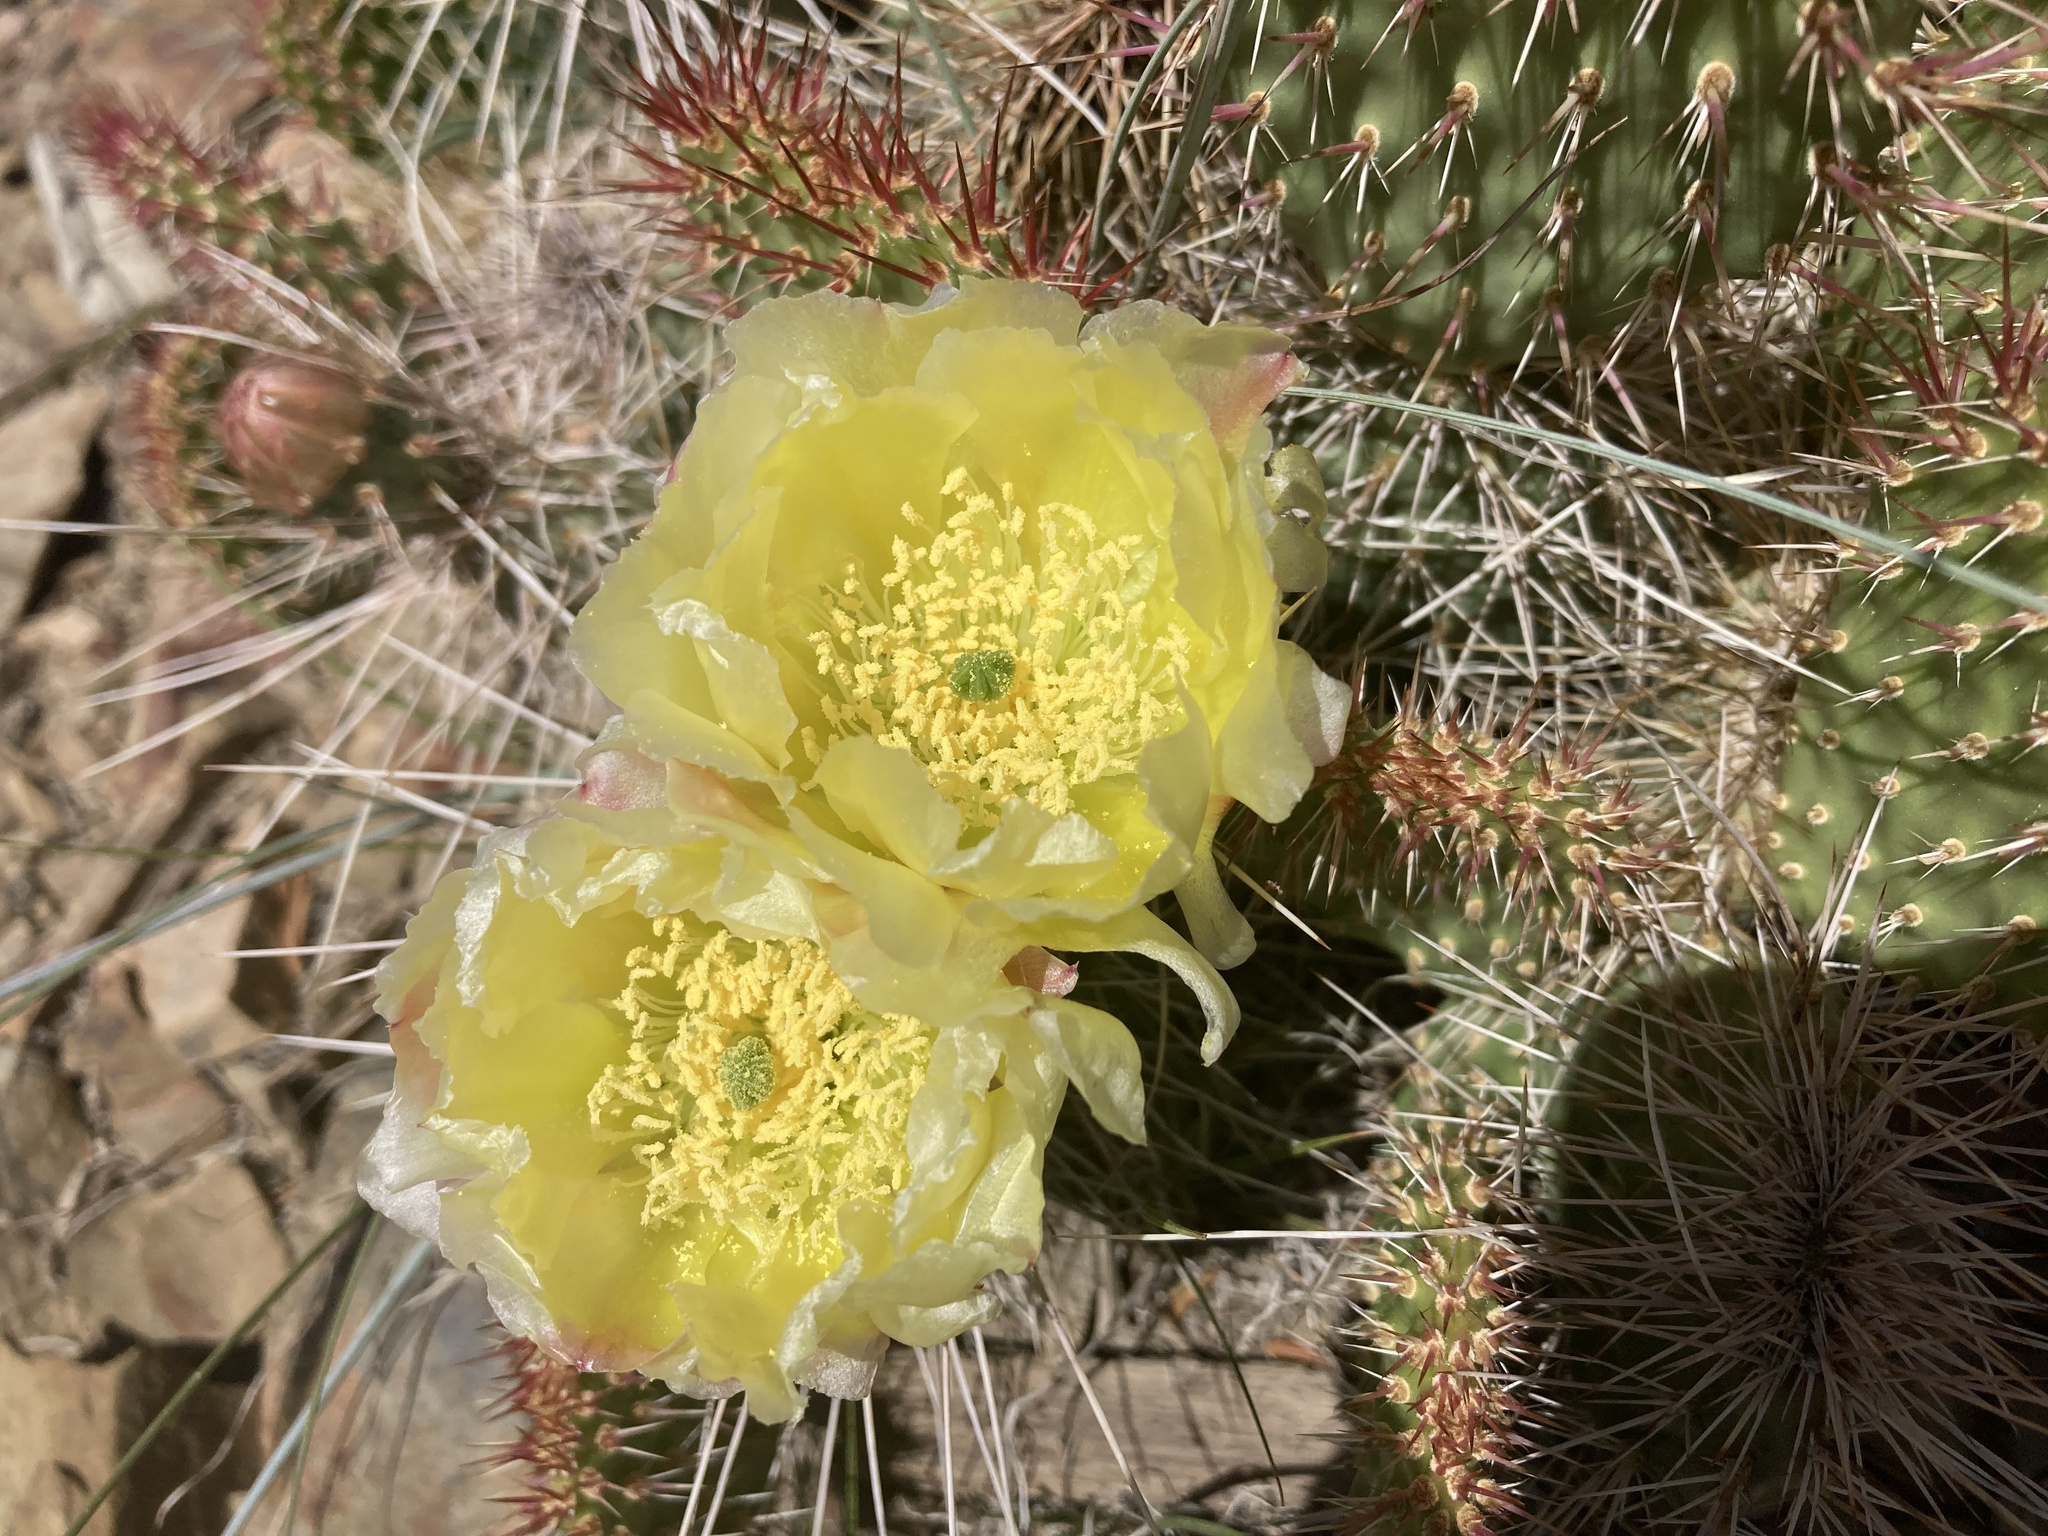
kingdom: Plantae
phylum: Tracheophyta
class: Magnoliopsida
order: Caryophyllales
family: Cactaceae
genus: Opuntia
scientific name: Opuntia polyacantha
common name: Plains prickly-pear
